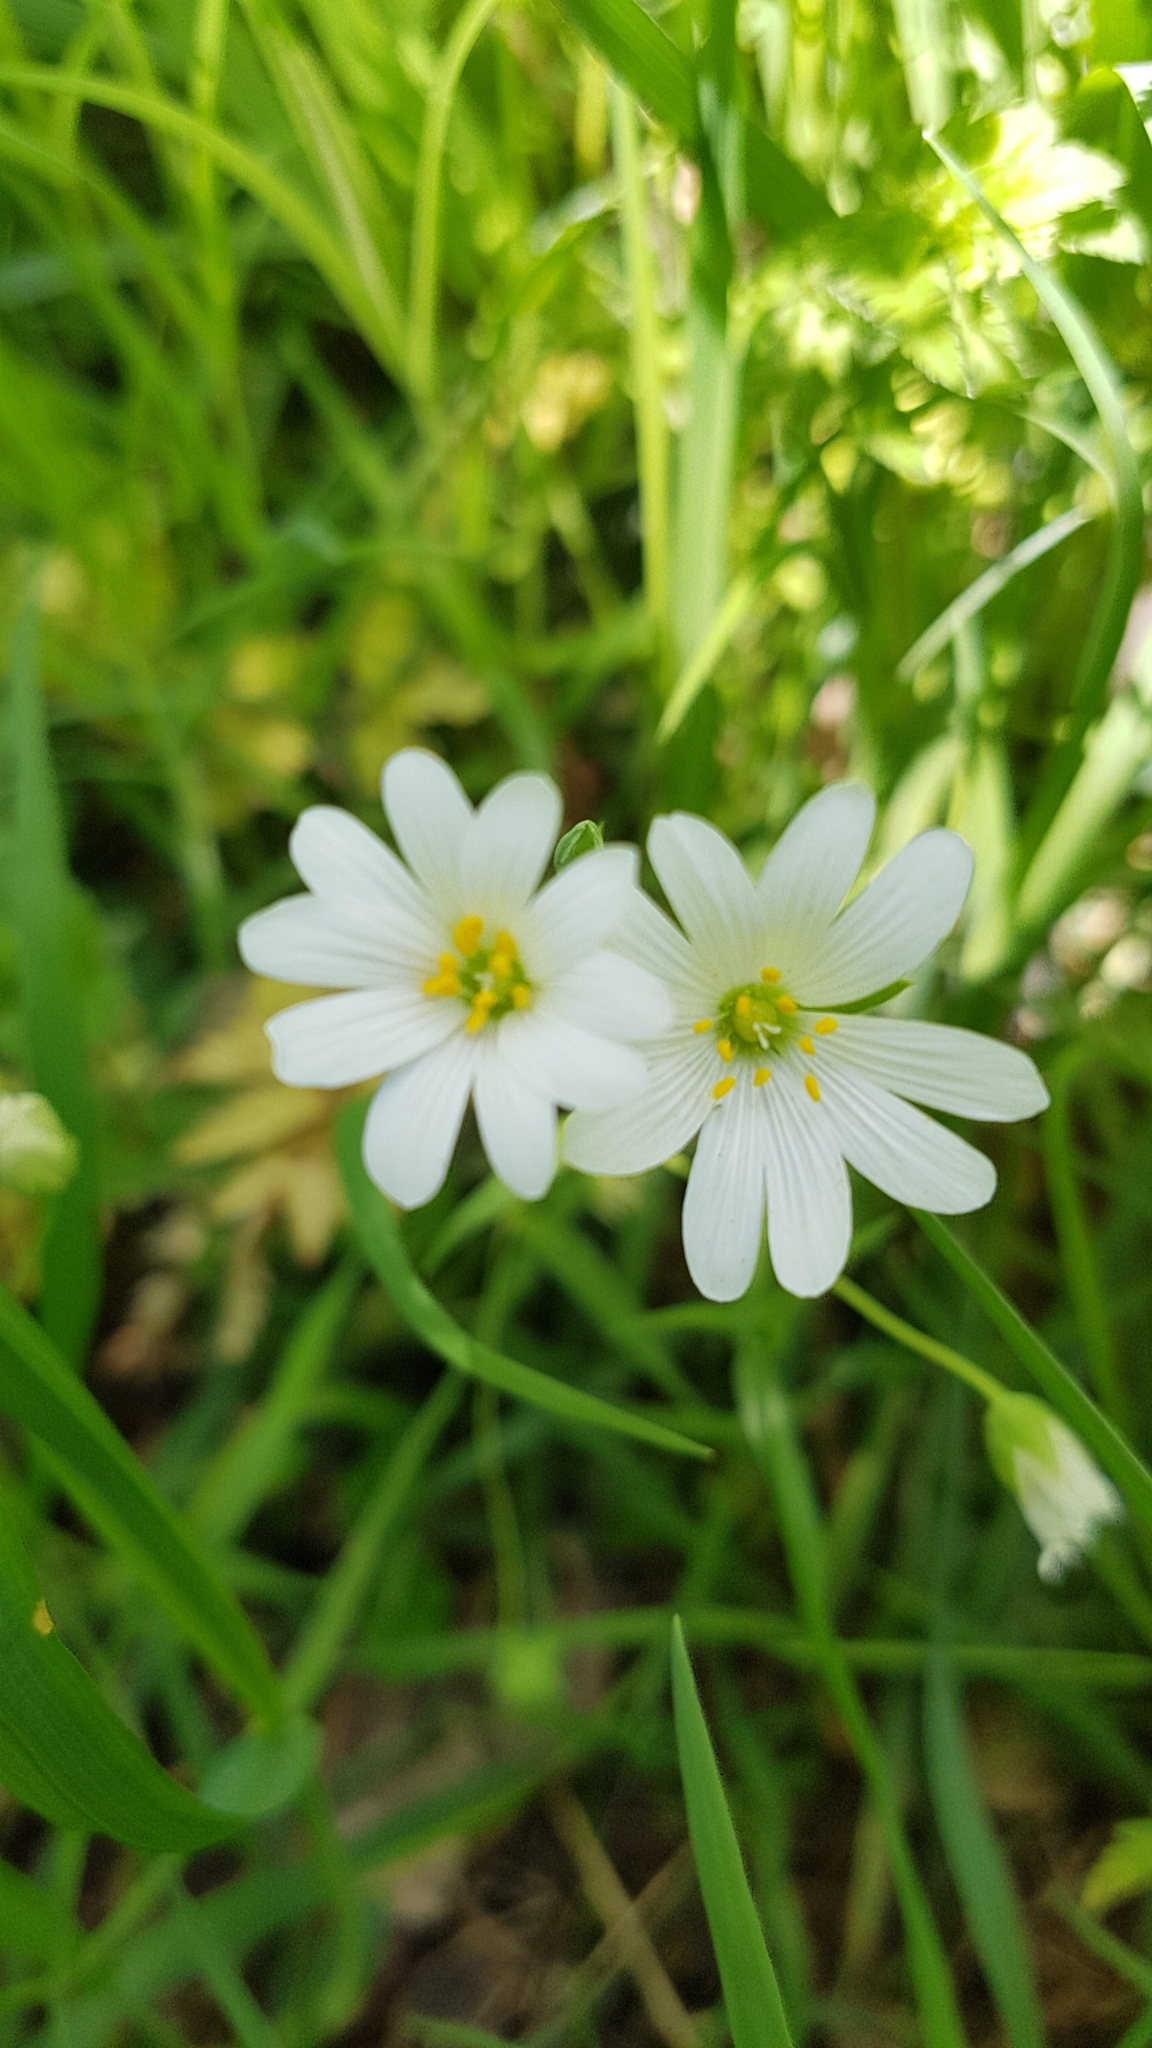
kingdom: Plantae
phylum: Tracheophyta
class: Magnoliopsida
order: Caryophyllales
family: Caryophyllaceae
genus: Rabelera
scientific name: Rabelera holostea
